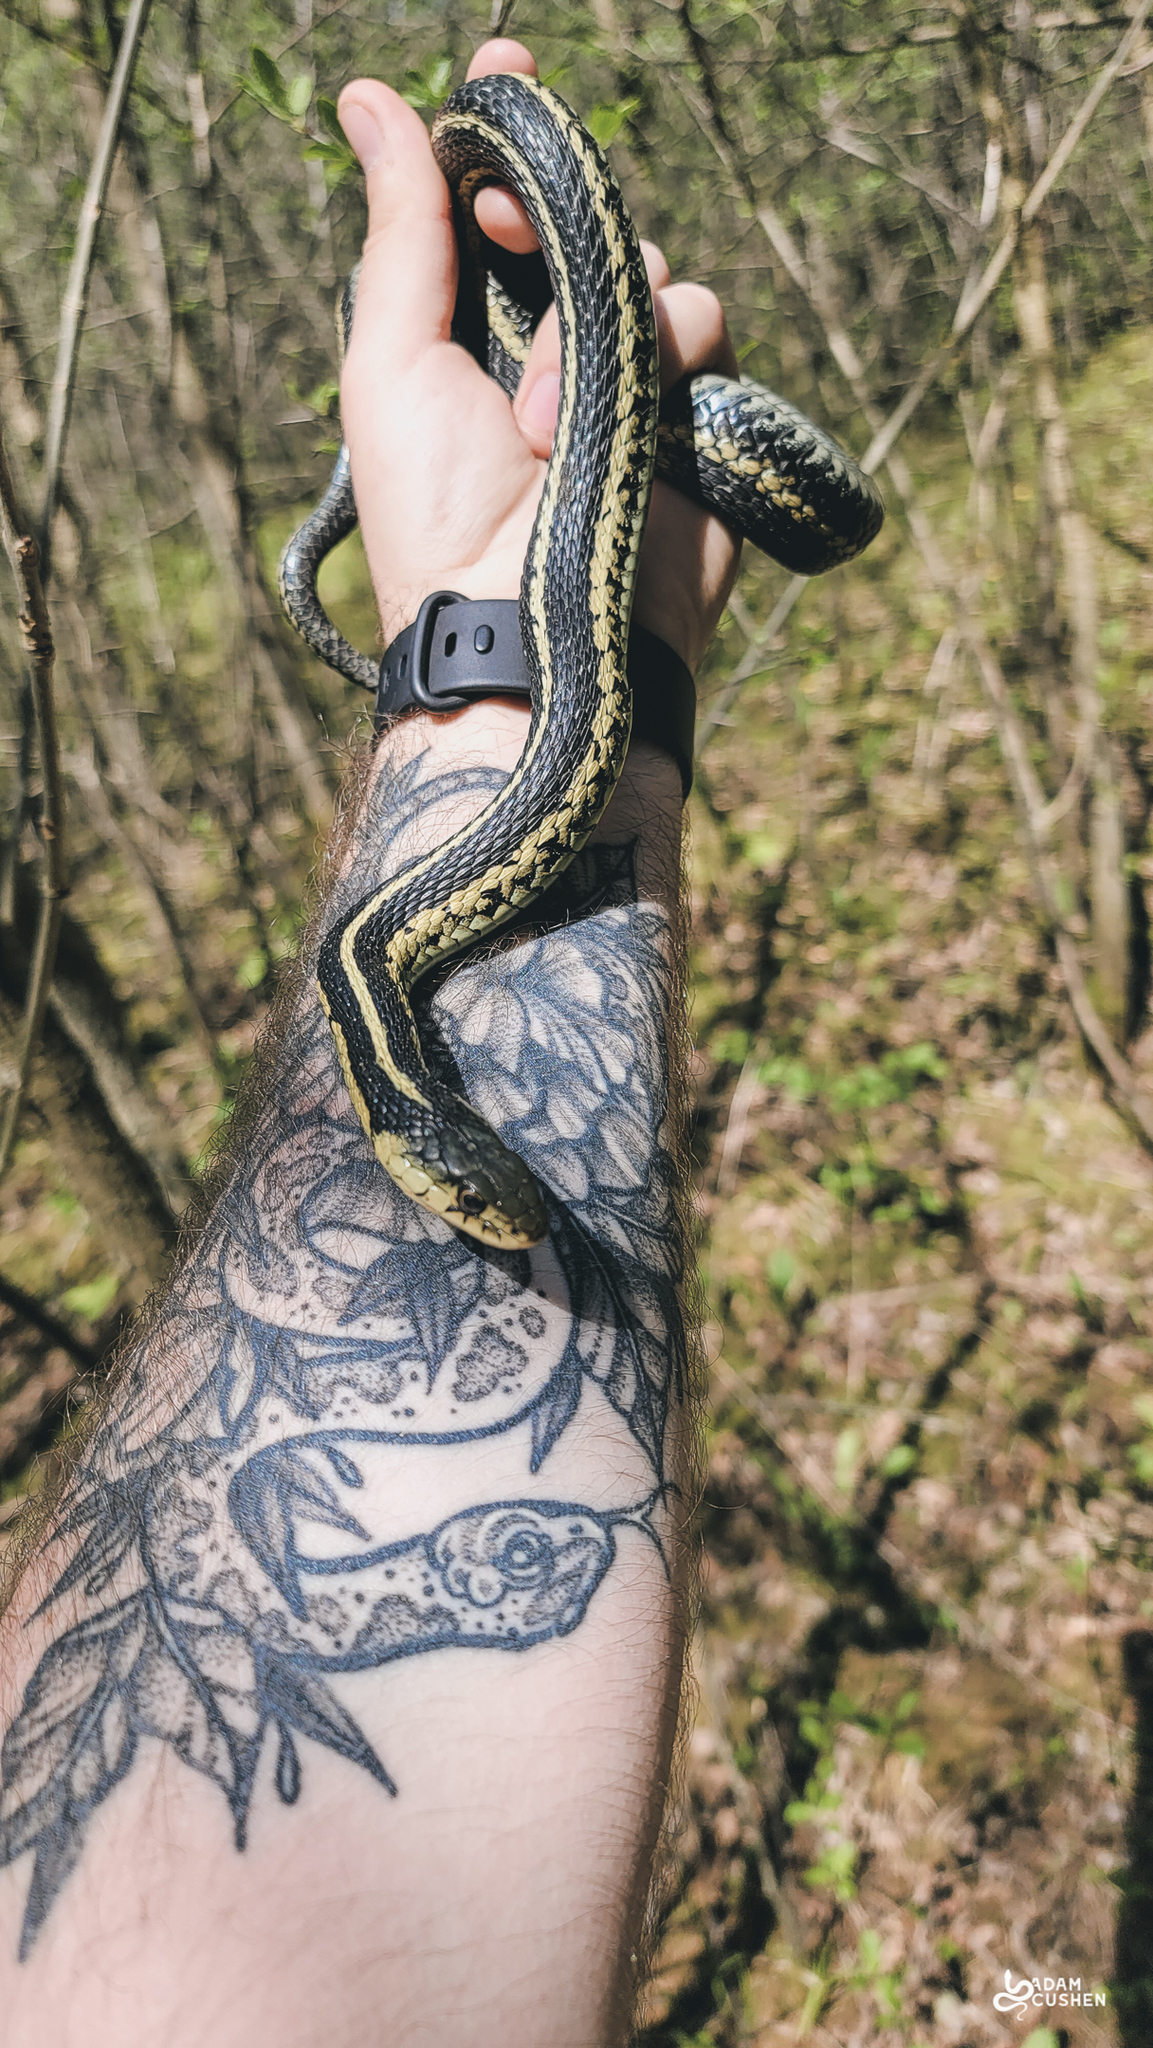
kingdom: Animalia
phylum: Chordata
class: Squamata
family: Colubridae
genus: Thamnophis
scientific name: Thamnophis sirtalis
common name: Common garter snake
